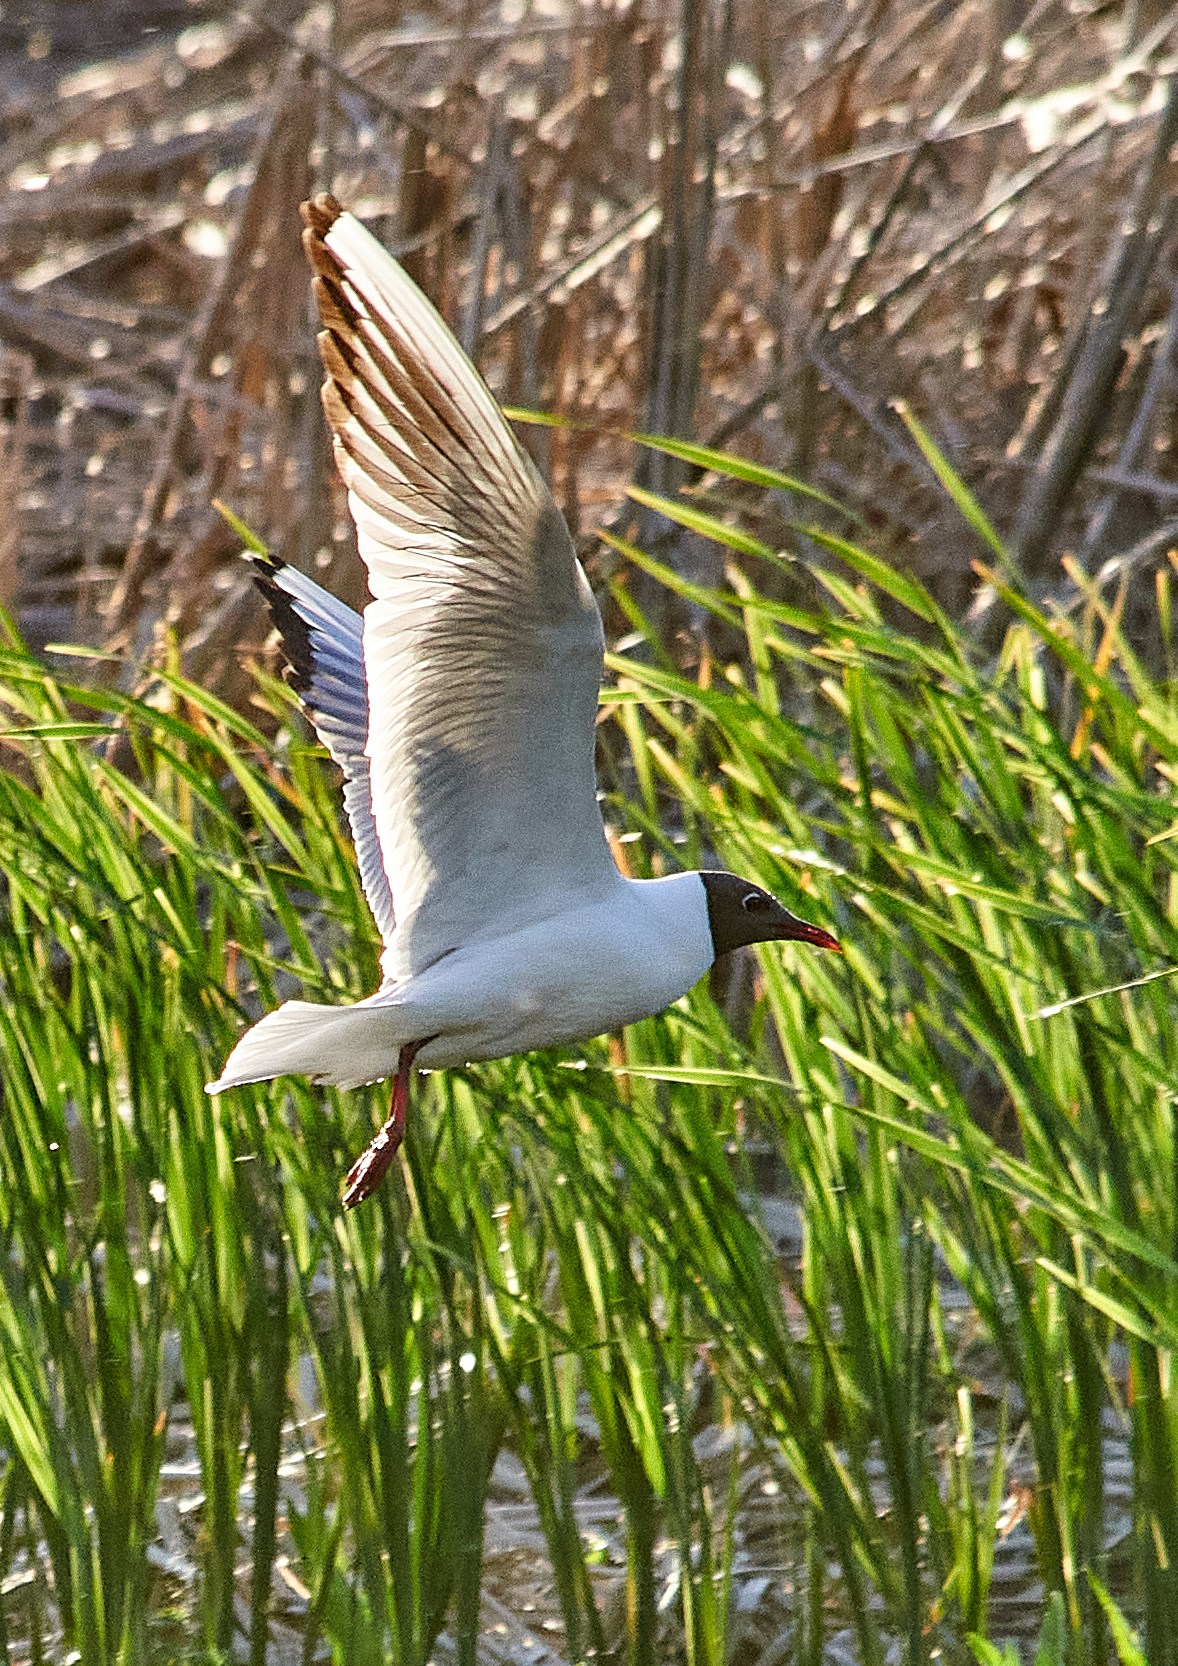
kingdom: Animalia
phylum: Chordata
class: Aves
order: Charadriiformes
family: Laridae
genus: Chroicocephalus
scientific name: Chroicocephalus ridibundus
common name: Black-headed gull
